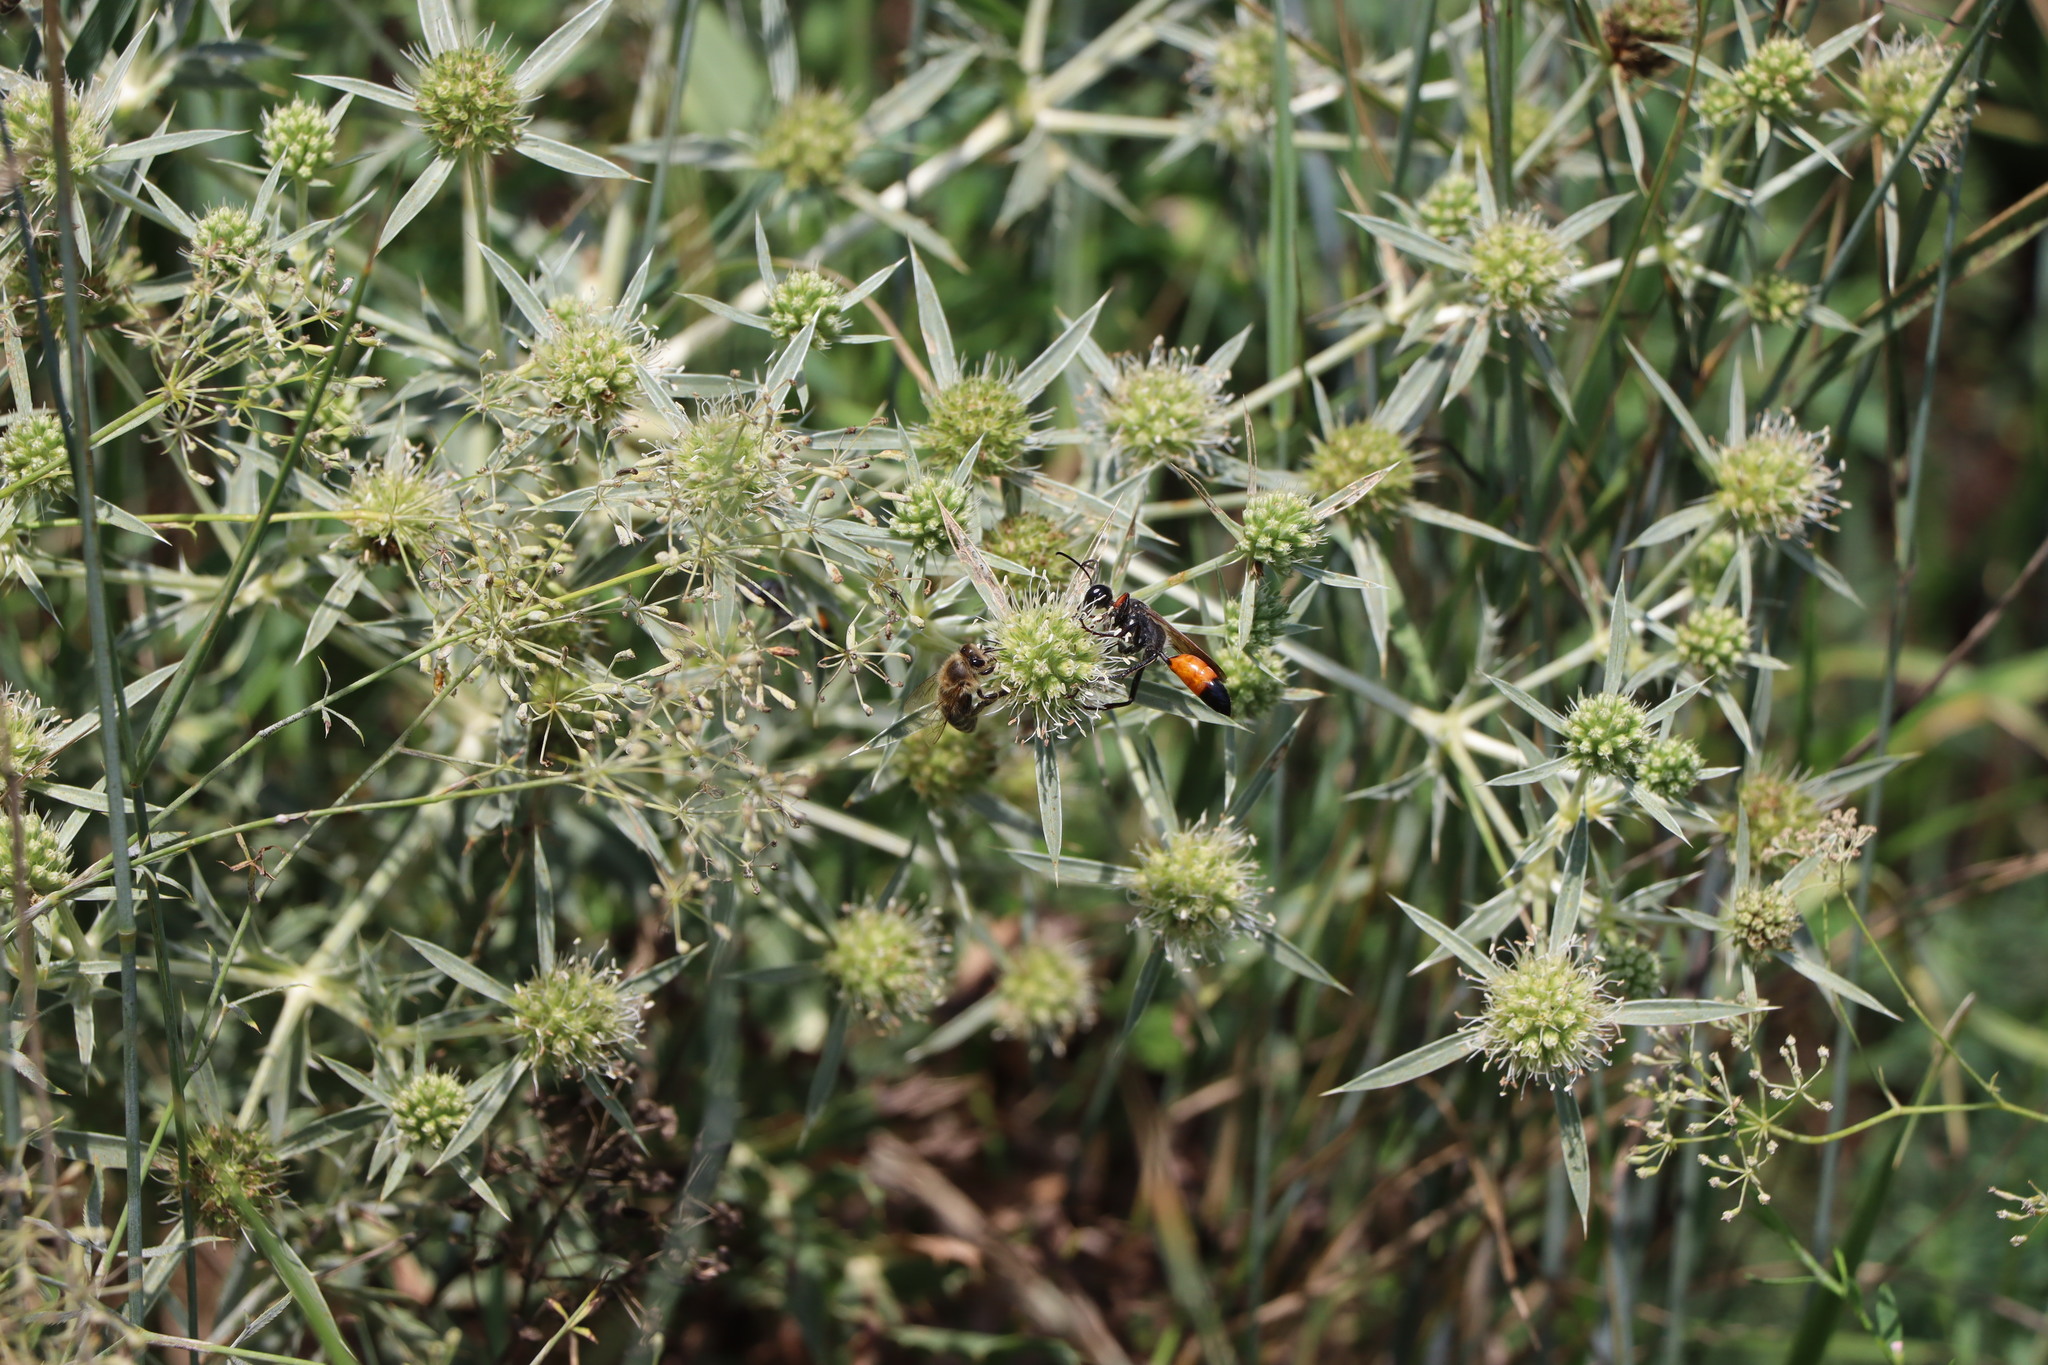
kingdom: Animalia
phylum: Arthropoda
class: Insecta
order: Hymenoptera
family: Sphecidae
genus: Sphex
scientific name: Sphex funerarius
